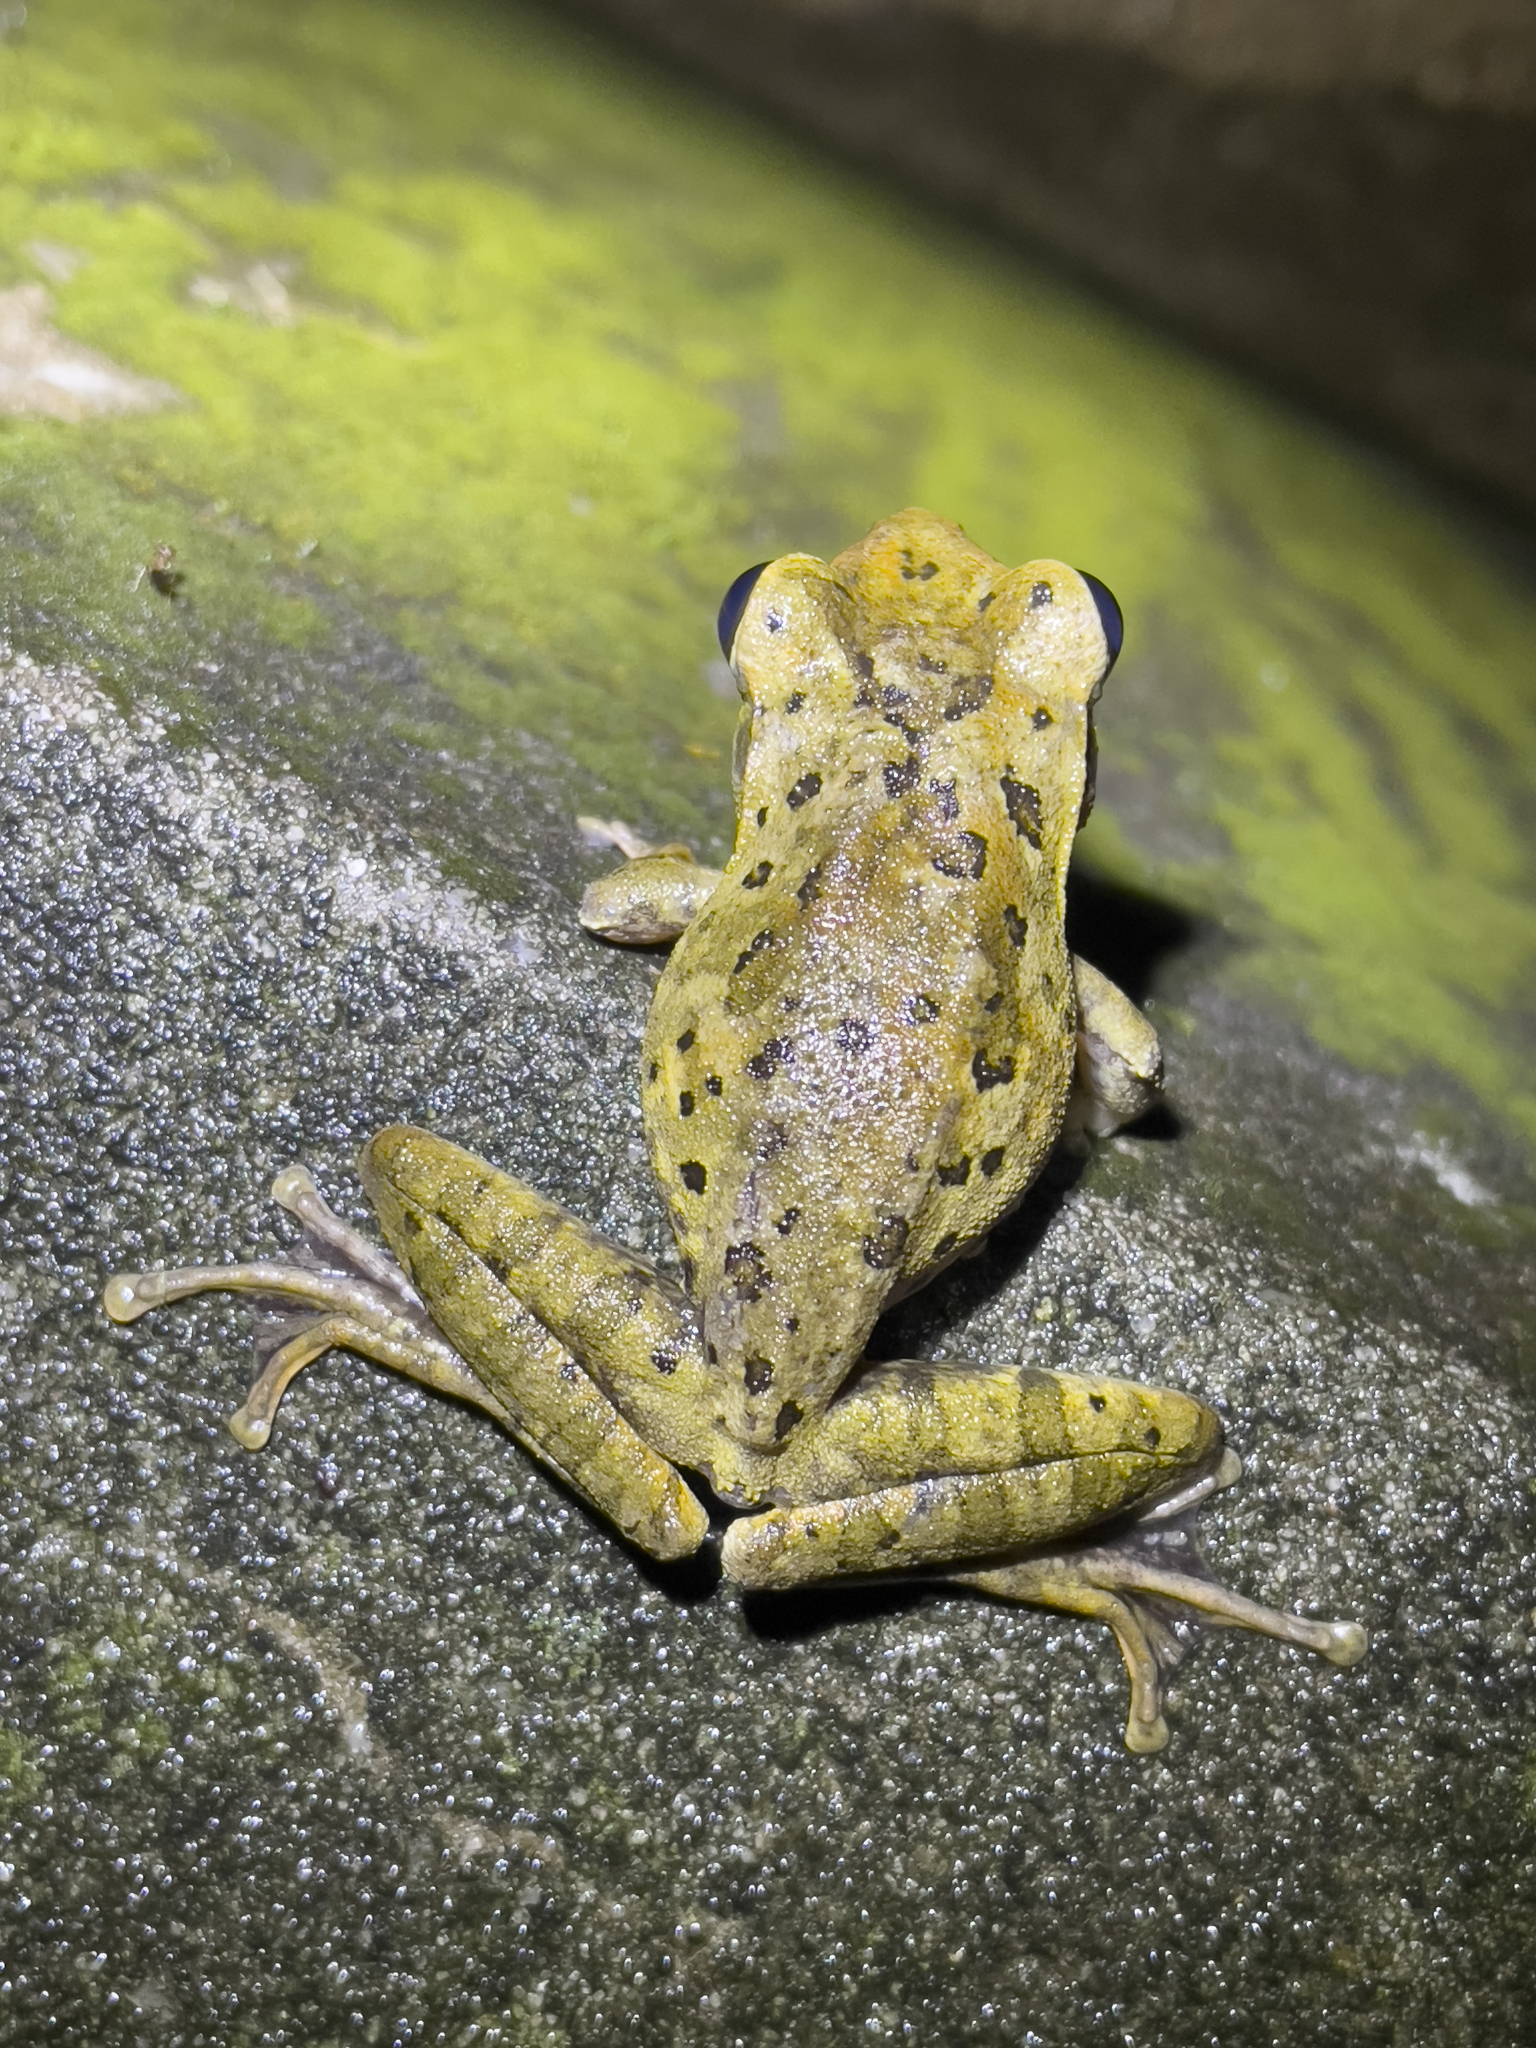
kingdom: Animalia
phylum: Chordata
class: Amphibia
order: Anura
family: Rhacophoridae
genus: Polypedates
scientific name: Polypedates megacephalus
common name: Hong kong whipping frog
